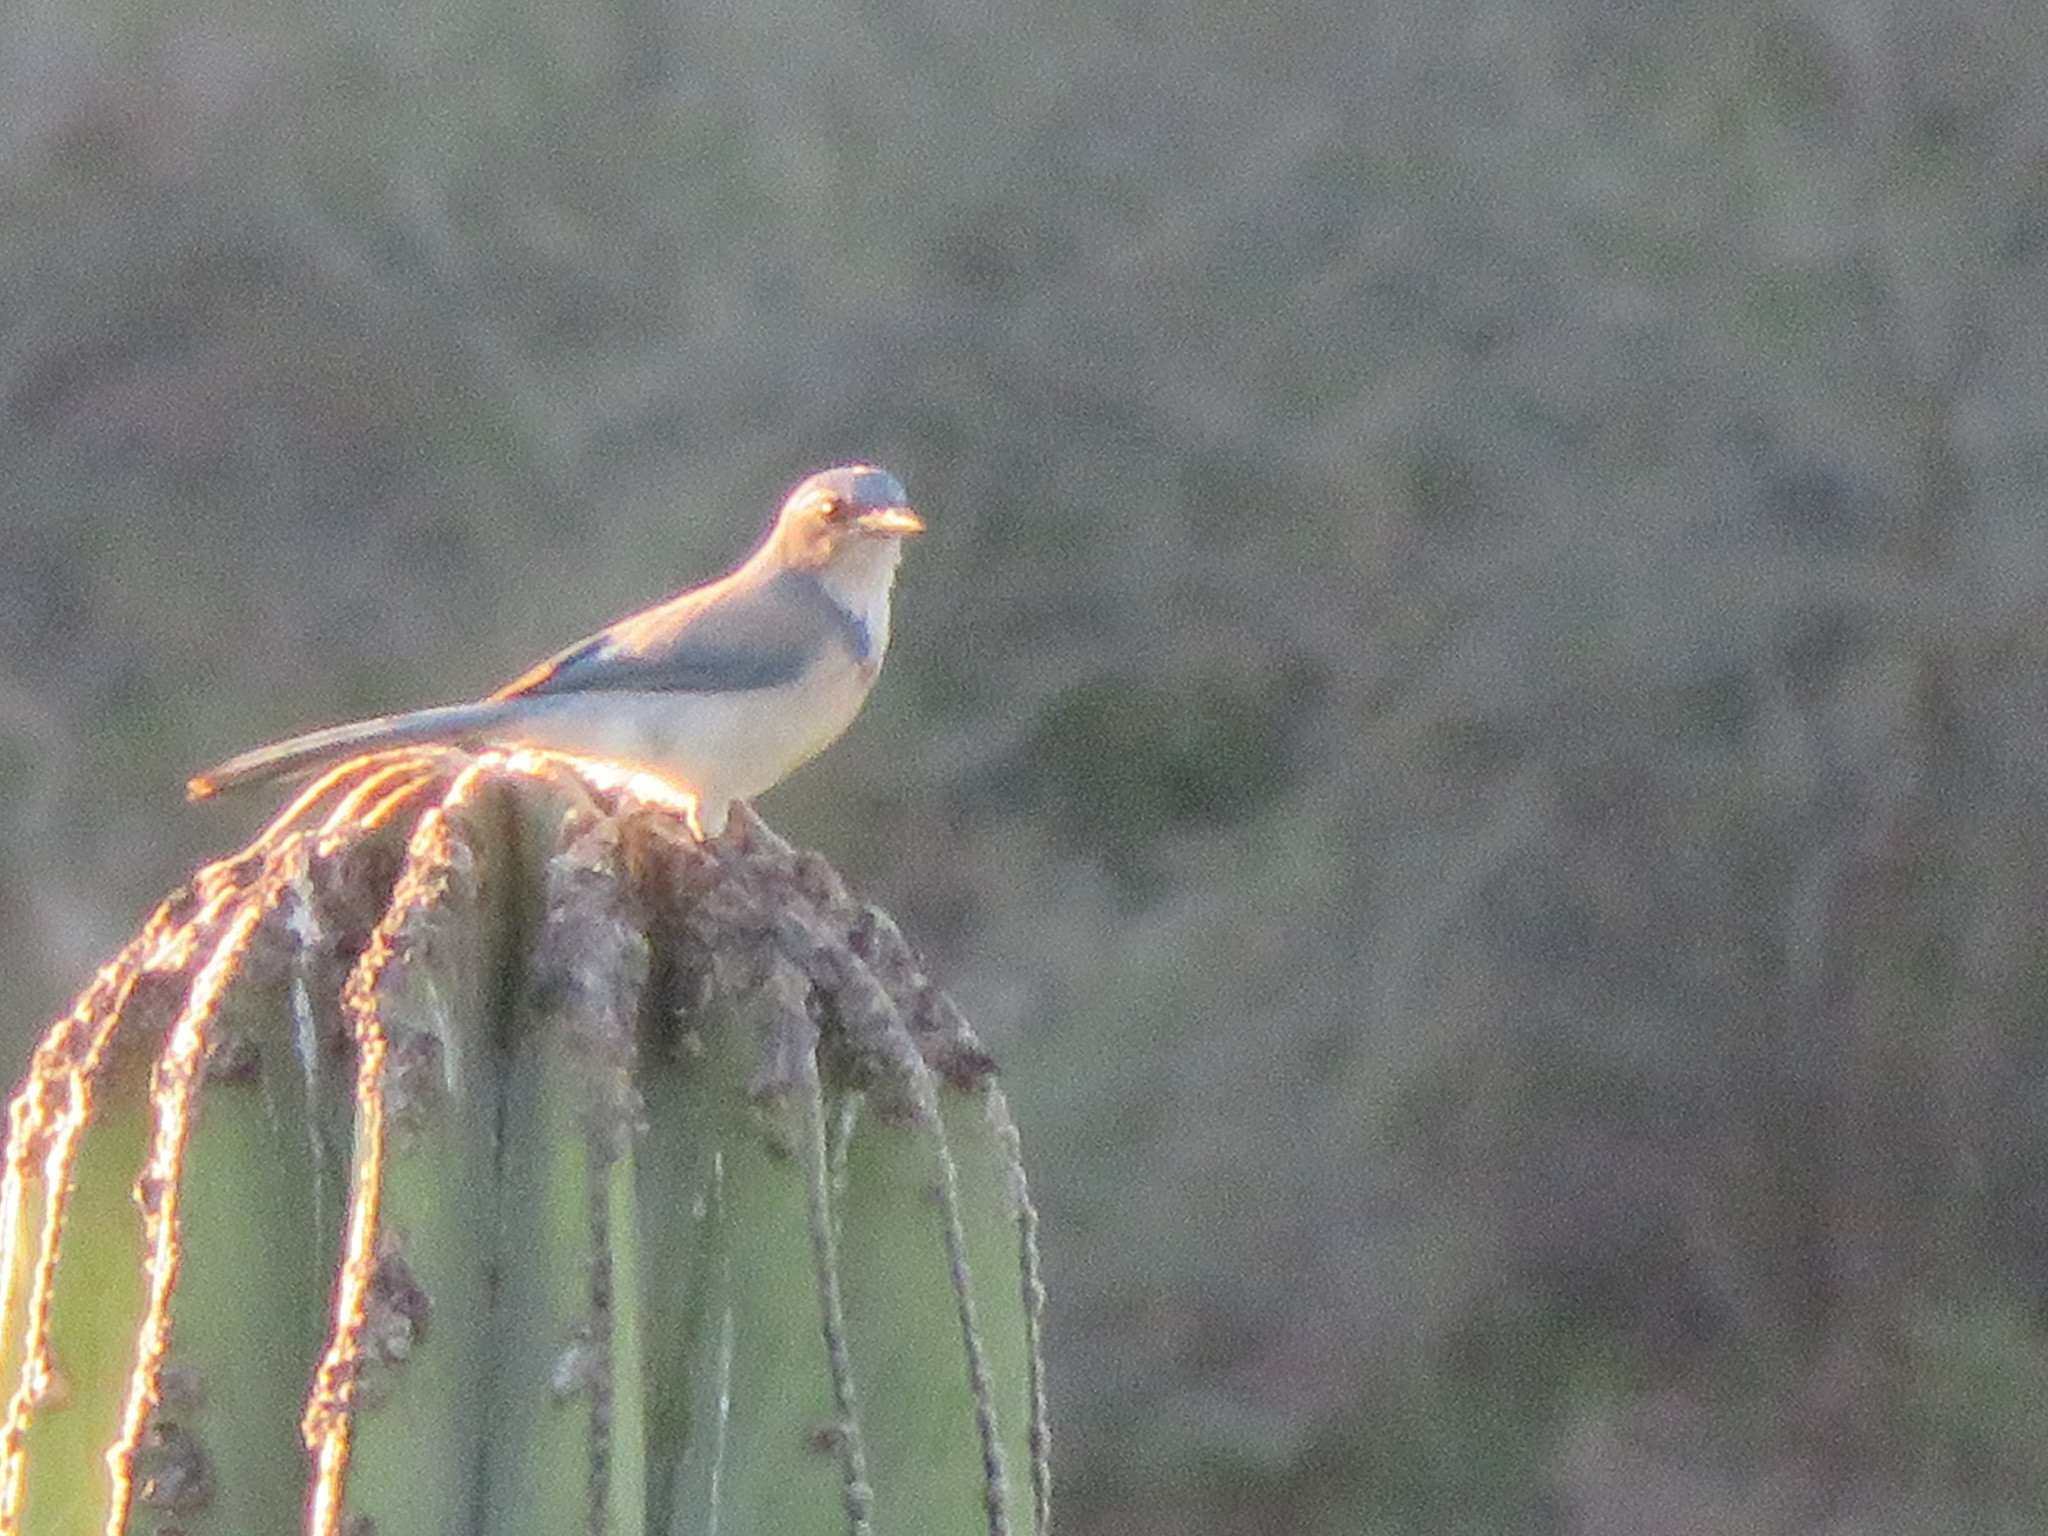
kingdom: Animalia
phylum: Chordata
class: Aves
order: Passeriformes
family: Corvidae
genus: Aphelocoma
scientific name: Aphelocoma californica
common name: California scrub-jay
